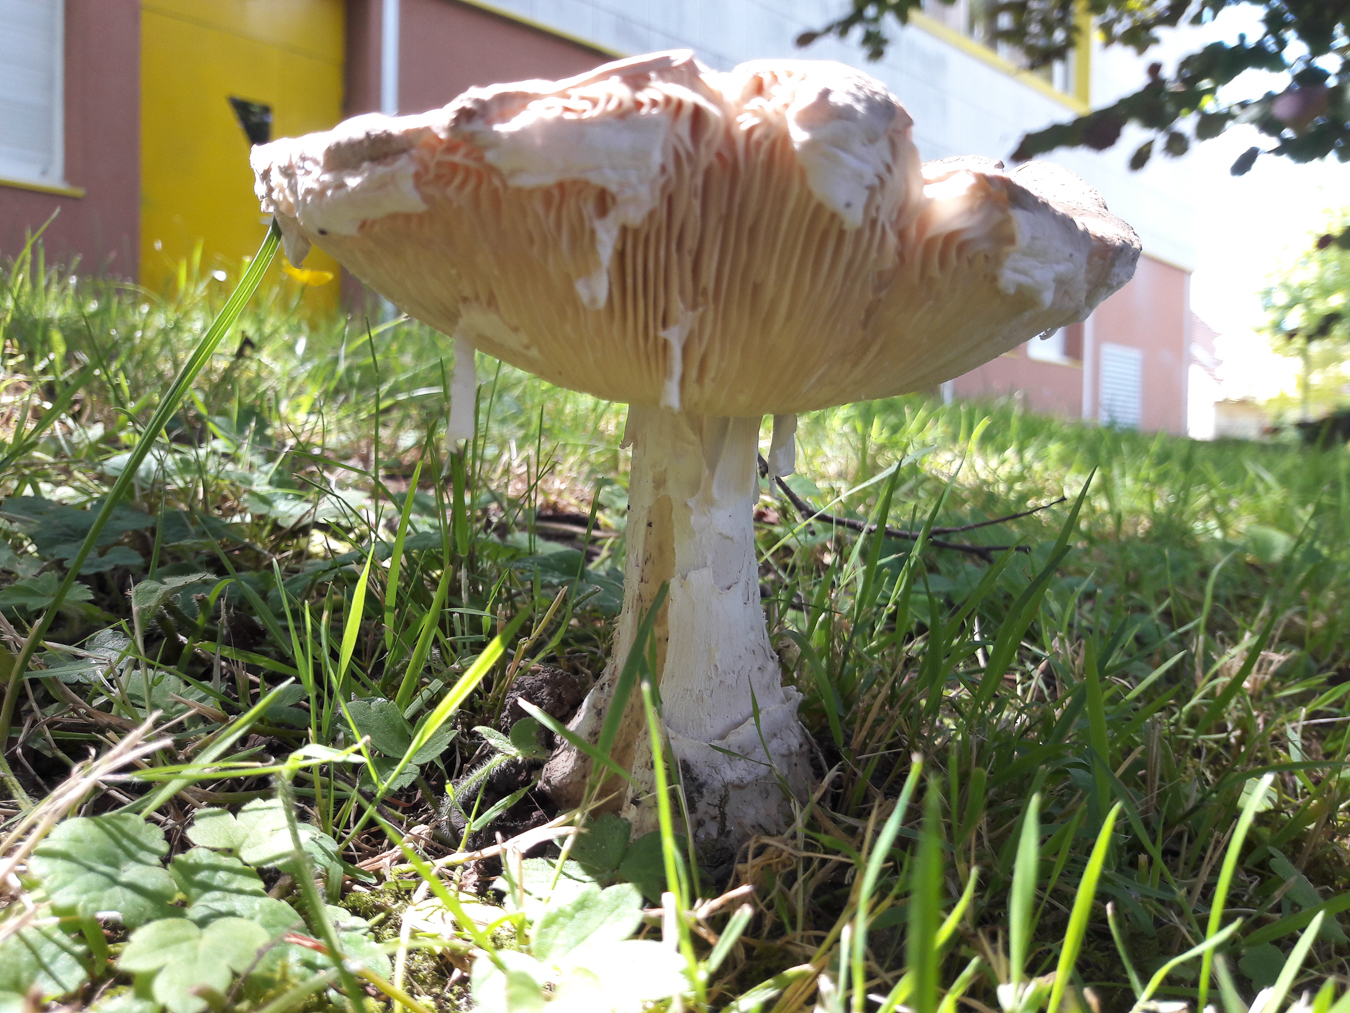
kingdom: Fungi
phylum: Basidiomycota
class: Agaricomycetes
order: Agaricales
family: Amanitaceae
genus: Amanita
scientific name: Amanita strobiliformis
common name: Warted amanita
